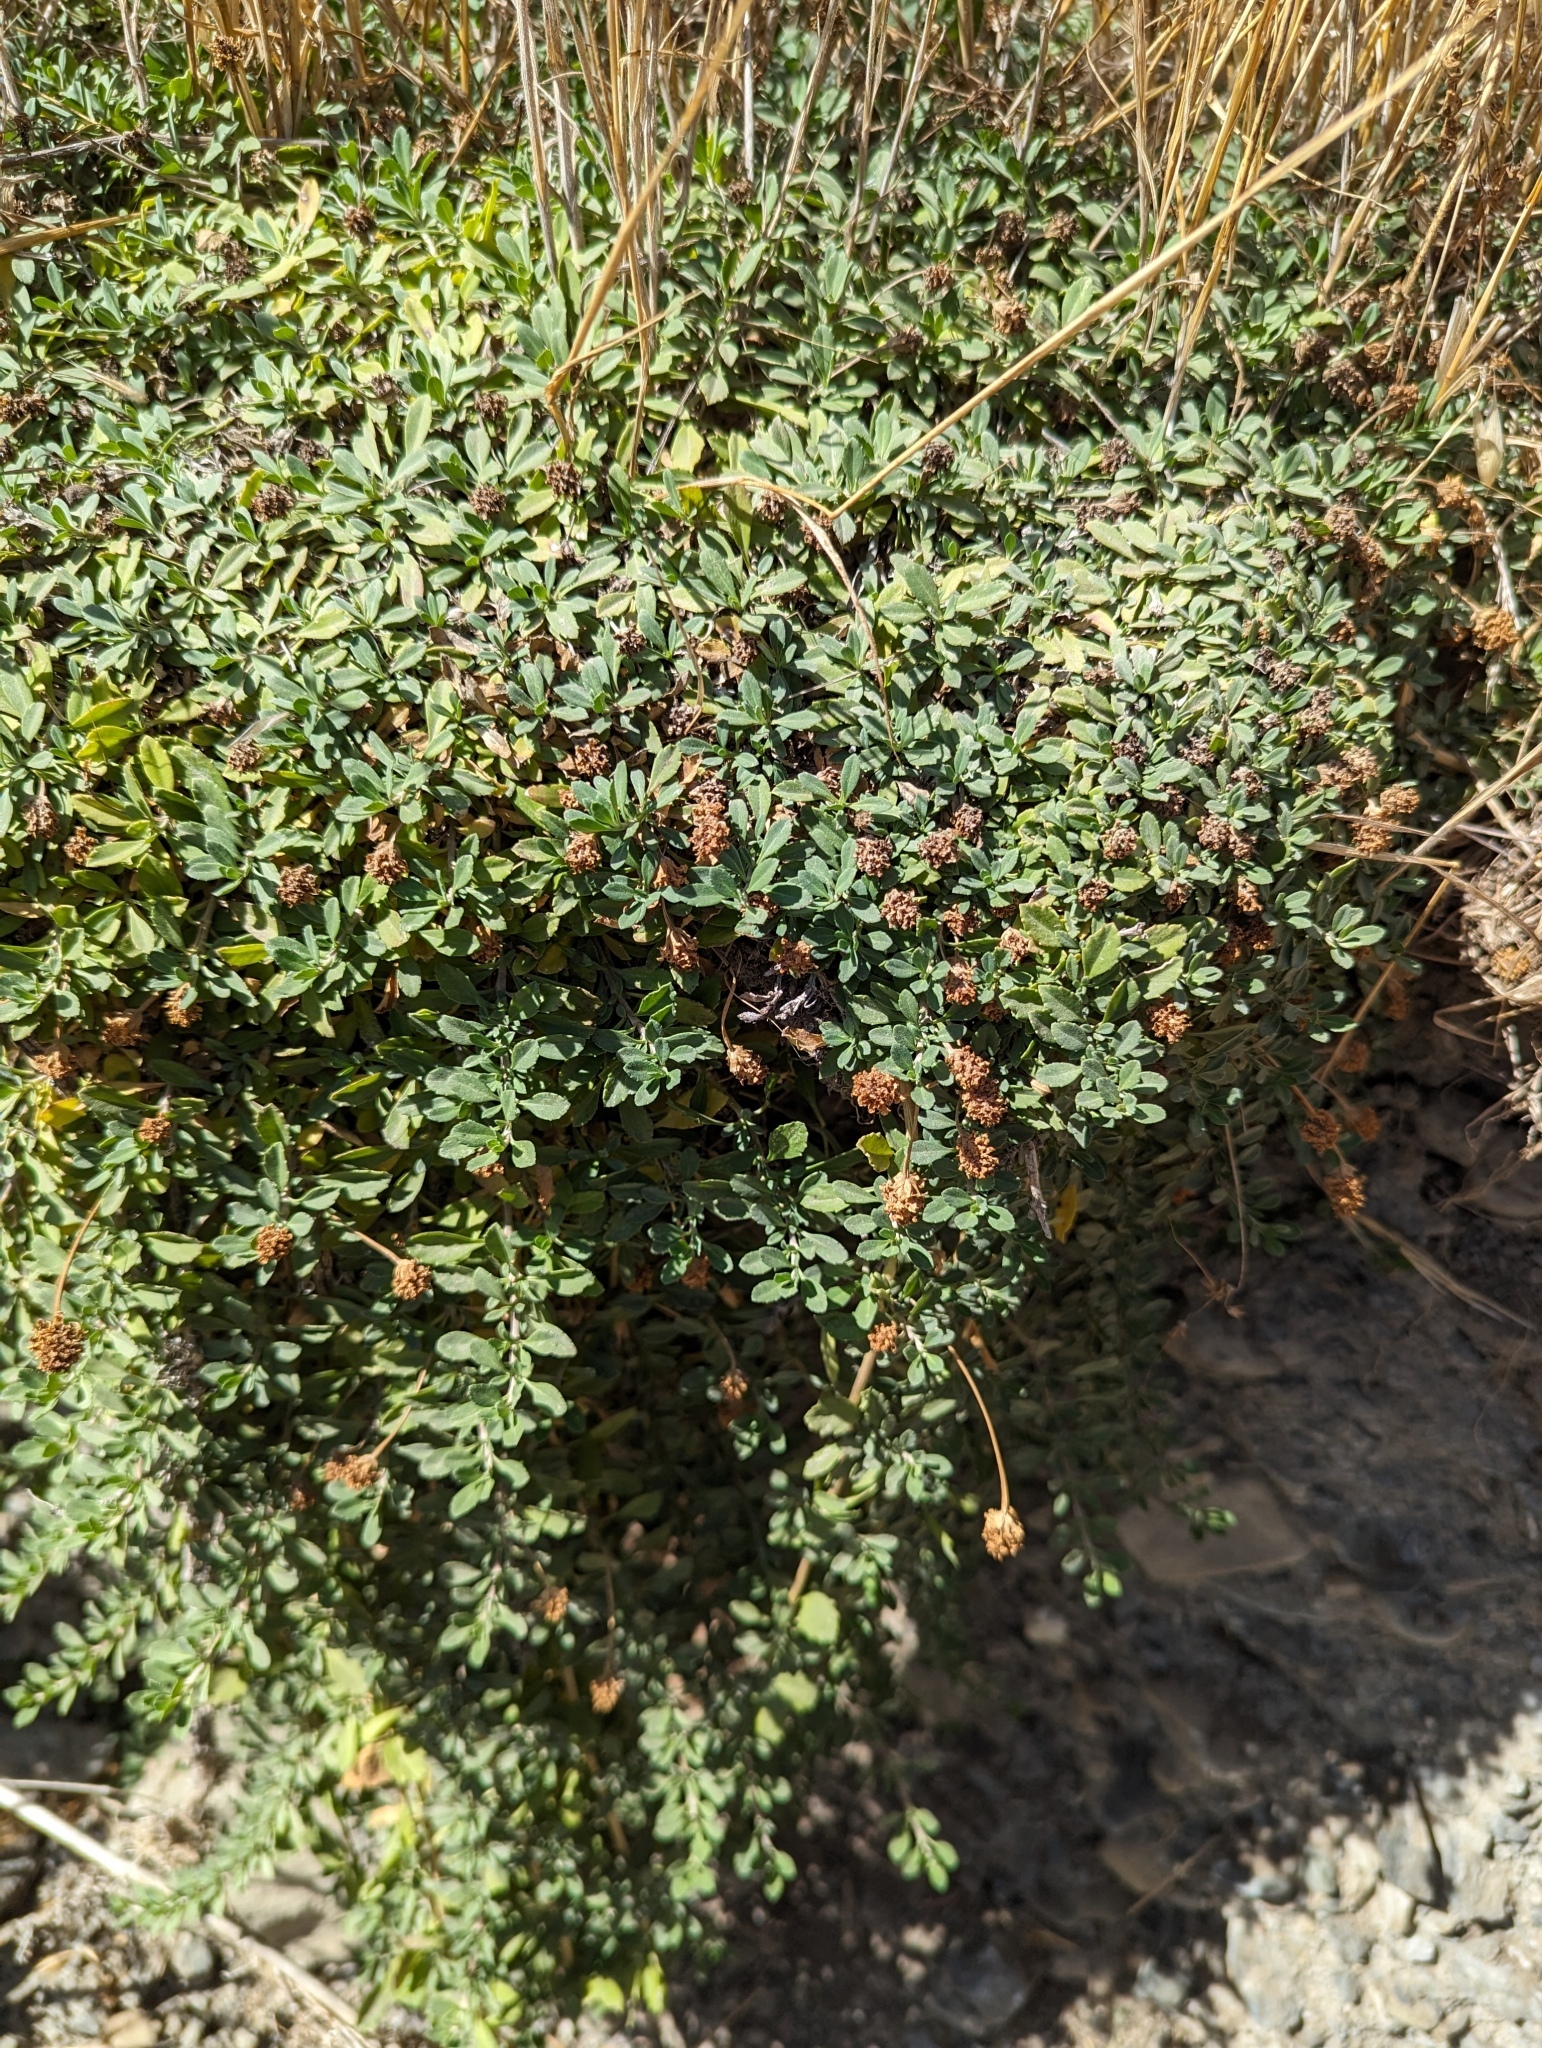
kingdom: Plantae
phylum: Tracheophyta
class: Magnoliopsida
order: Lamiales
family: Verbenaceae
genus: Phyla
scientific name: Phyla nodiflora
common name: Frogfruit
